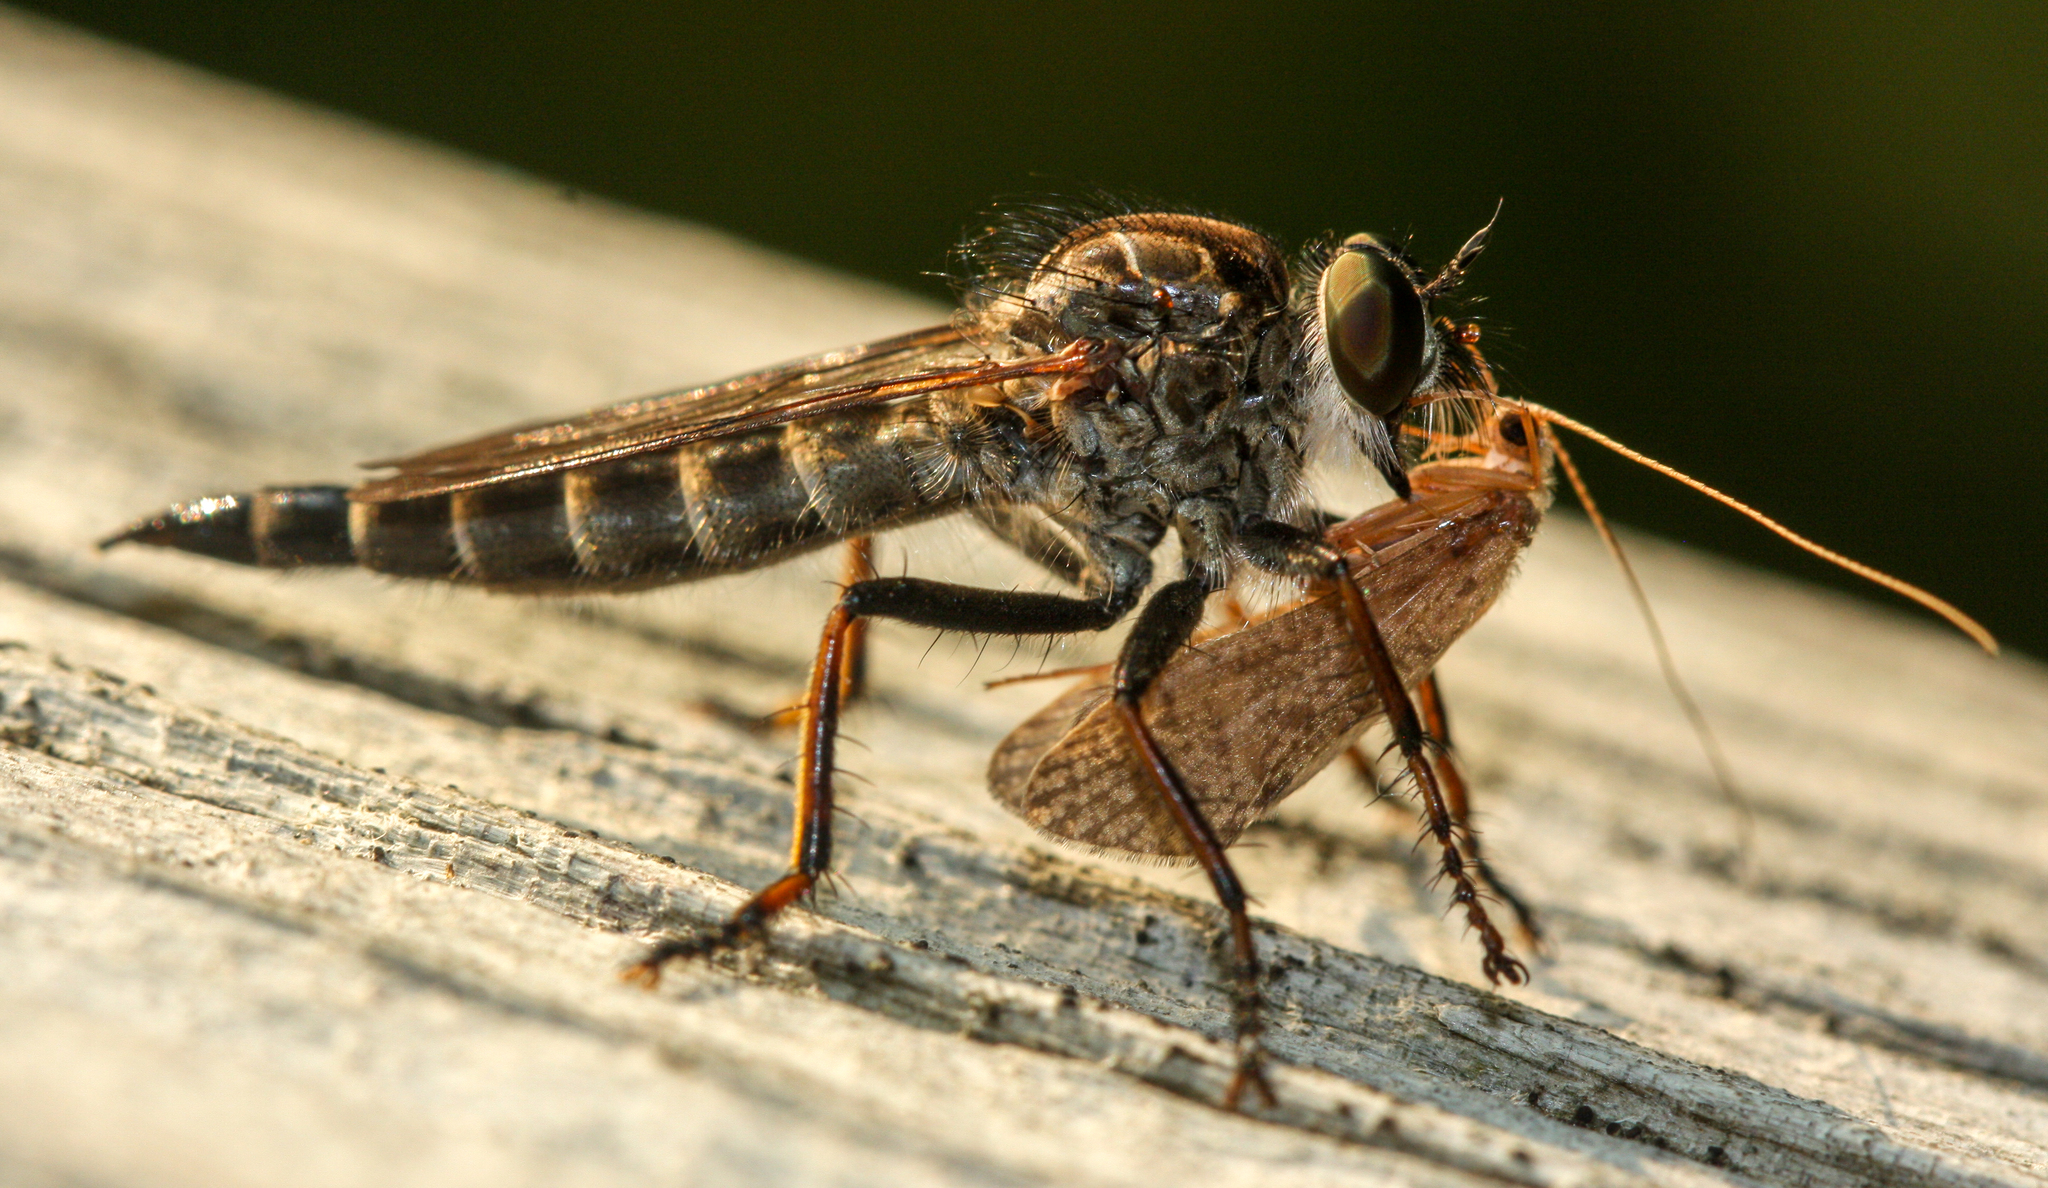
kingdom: Animalia
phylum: Arthropoda
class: Insecta
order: Diptera
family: Asilidae
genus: Machimus
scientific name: Machimus sadyates
